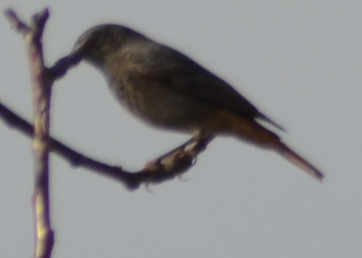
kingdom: Animalia
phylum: Chordata
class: Aves
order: Passeriformes
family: Muscicapidae
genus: Phoenicurus
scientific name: Phoenicurus ochruros
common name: Black redstart
